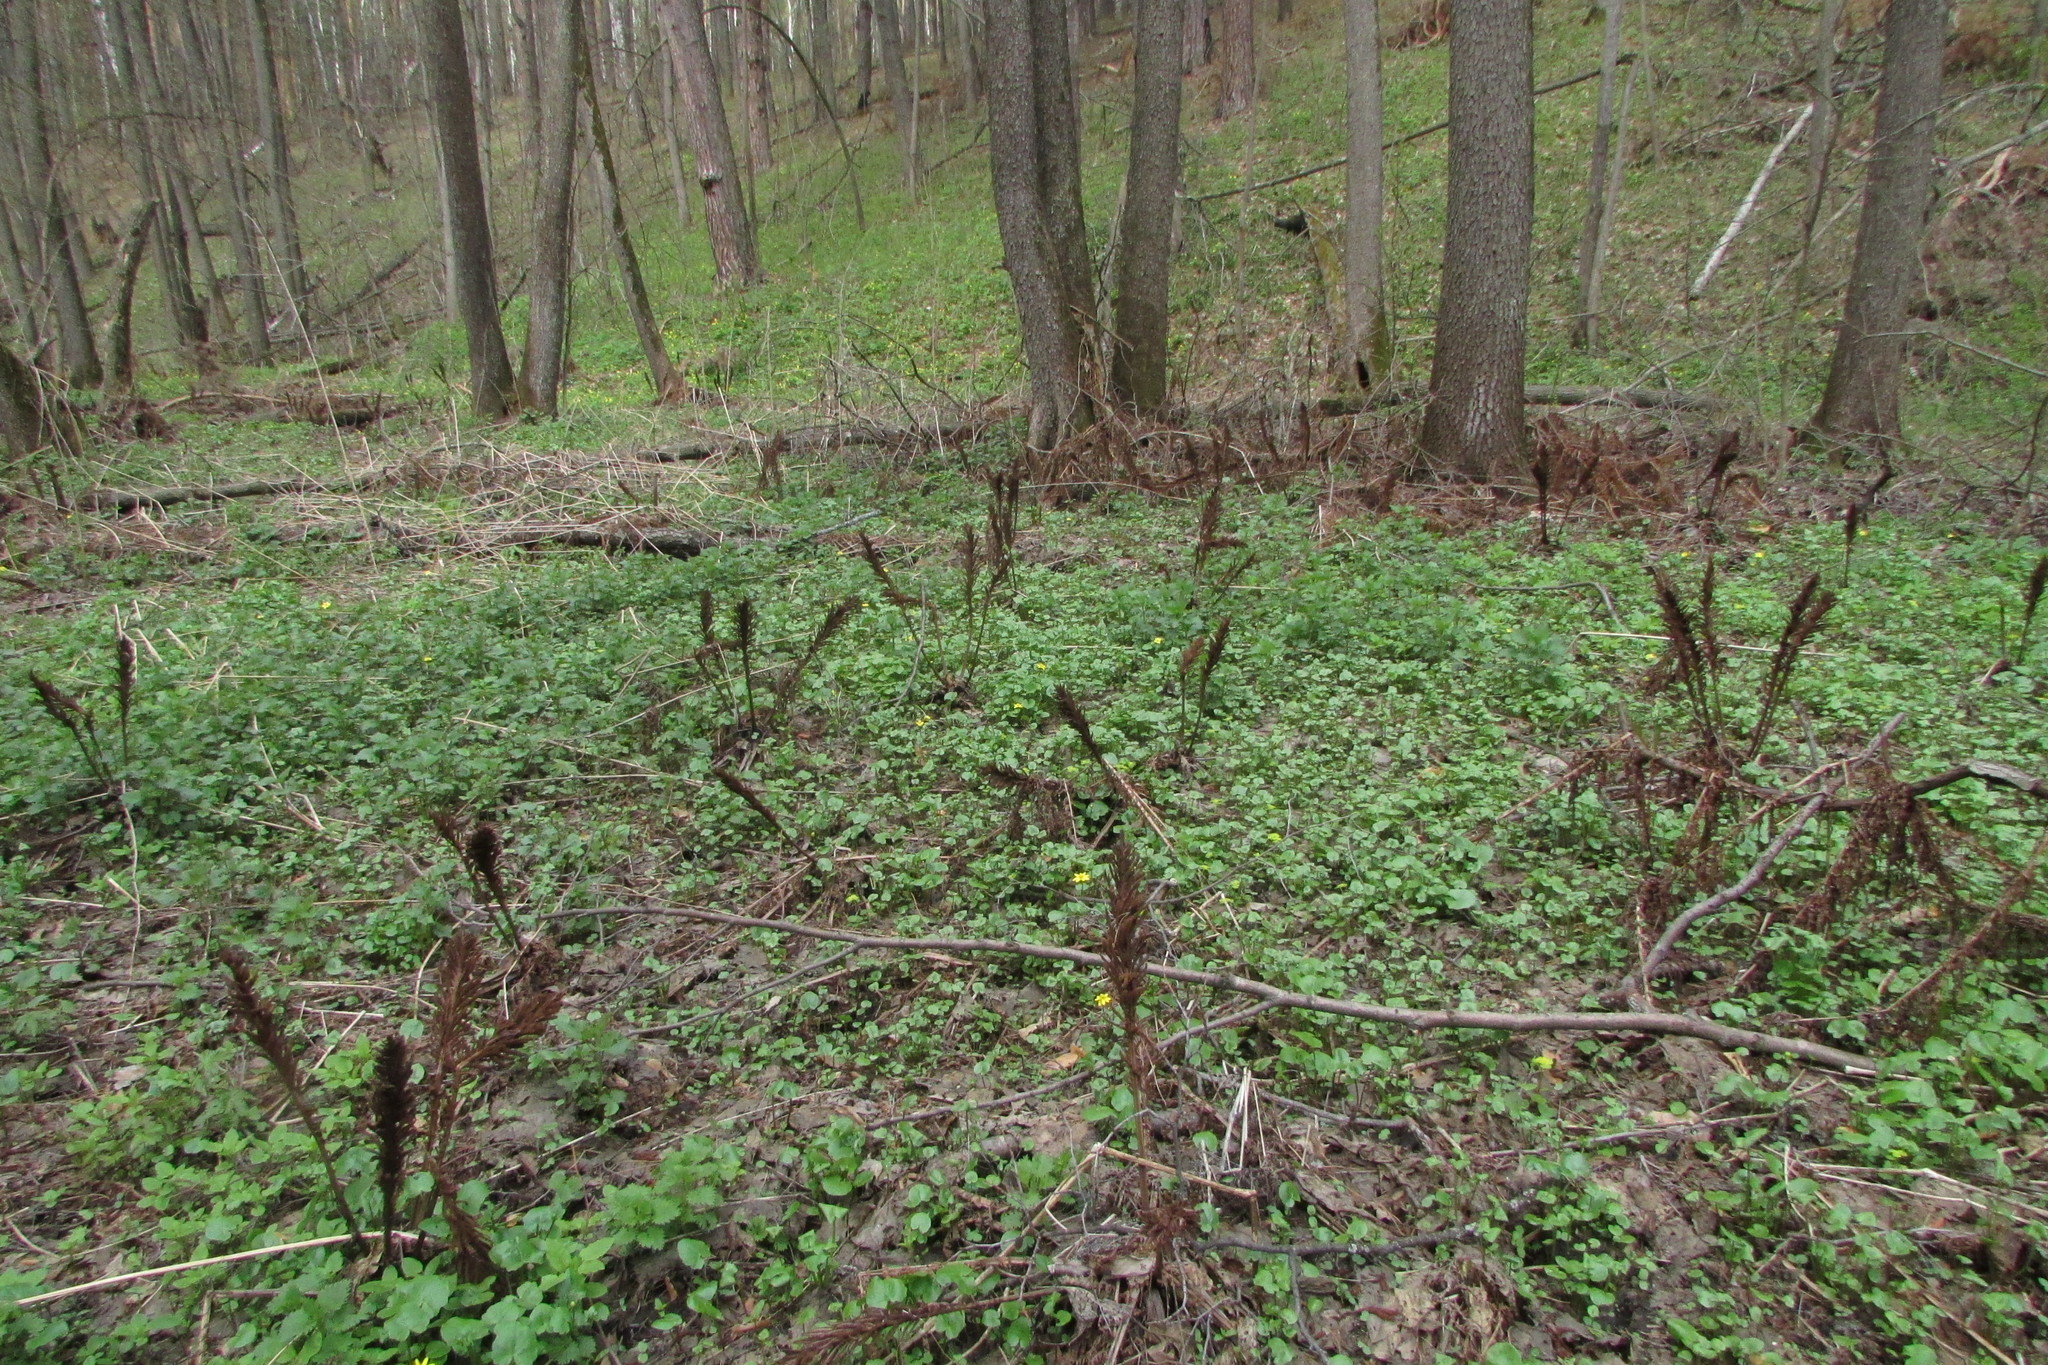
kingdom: Plantae
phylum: Tracheophyta
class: Polypodiopsida
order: Polypodiales
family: Onocleaceae
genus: Matteuccia
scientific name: Matteuccia struthiopteris
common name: Ostrich fern
